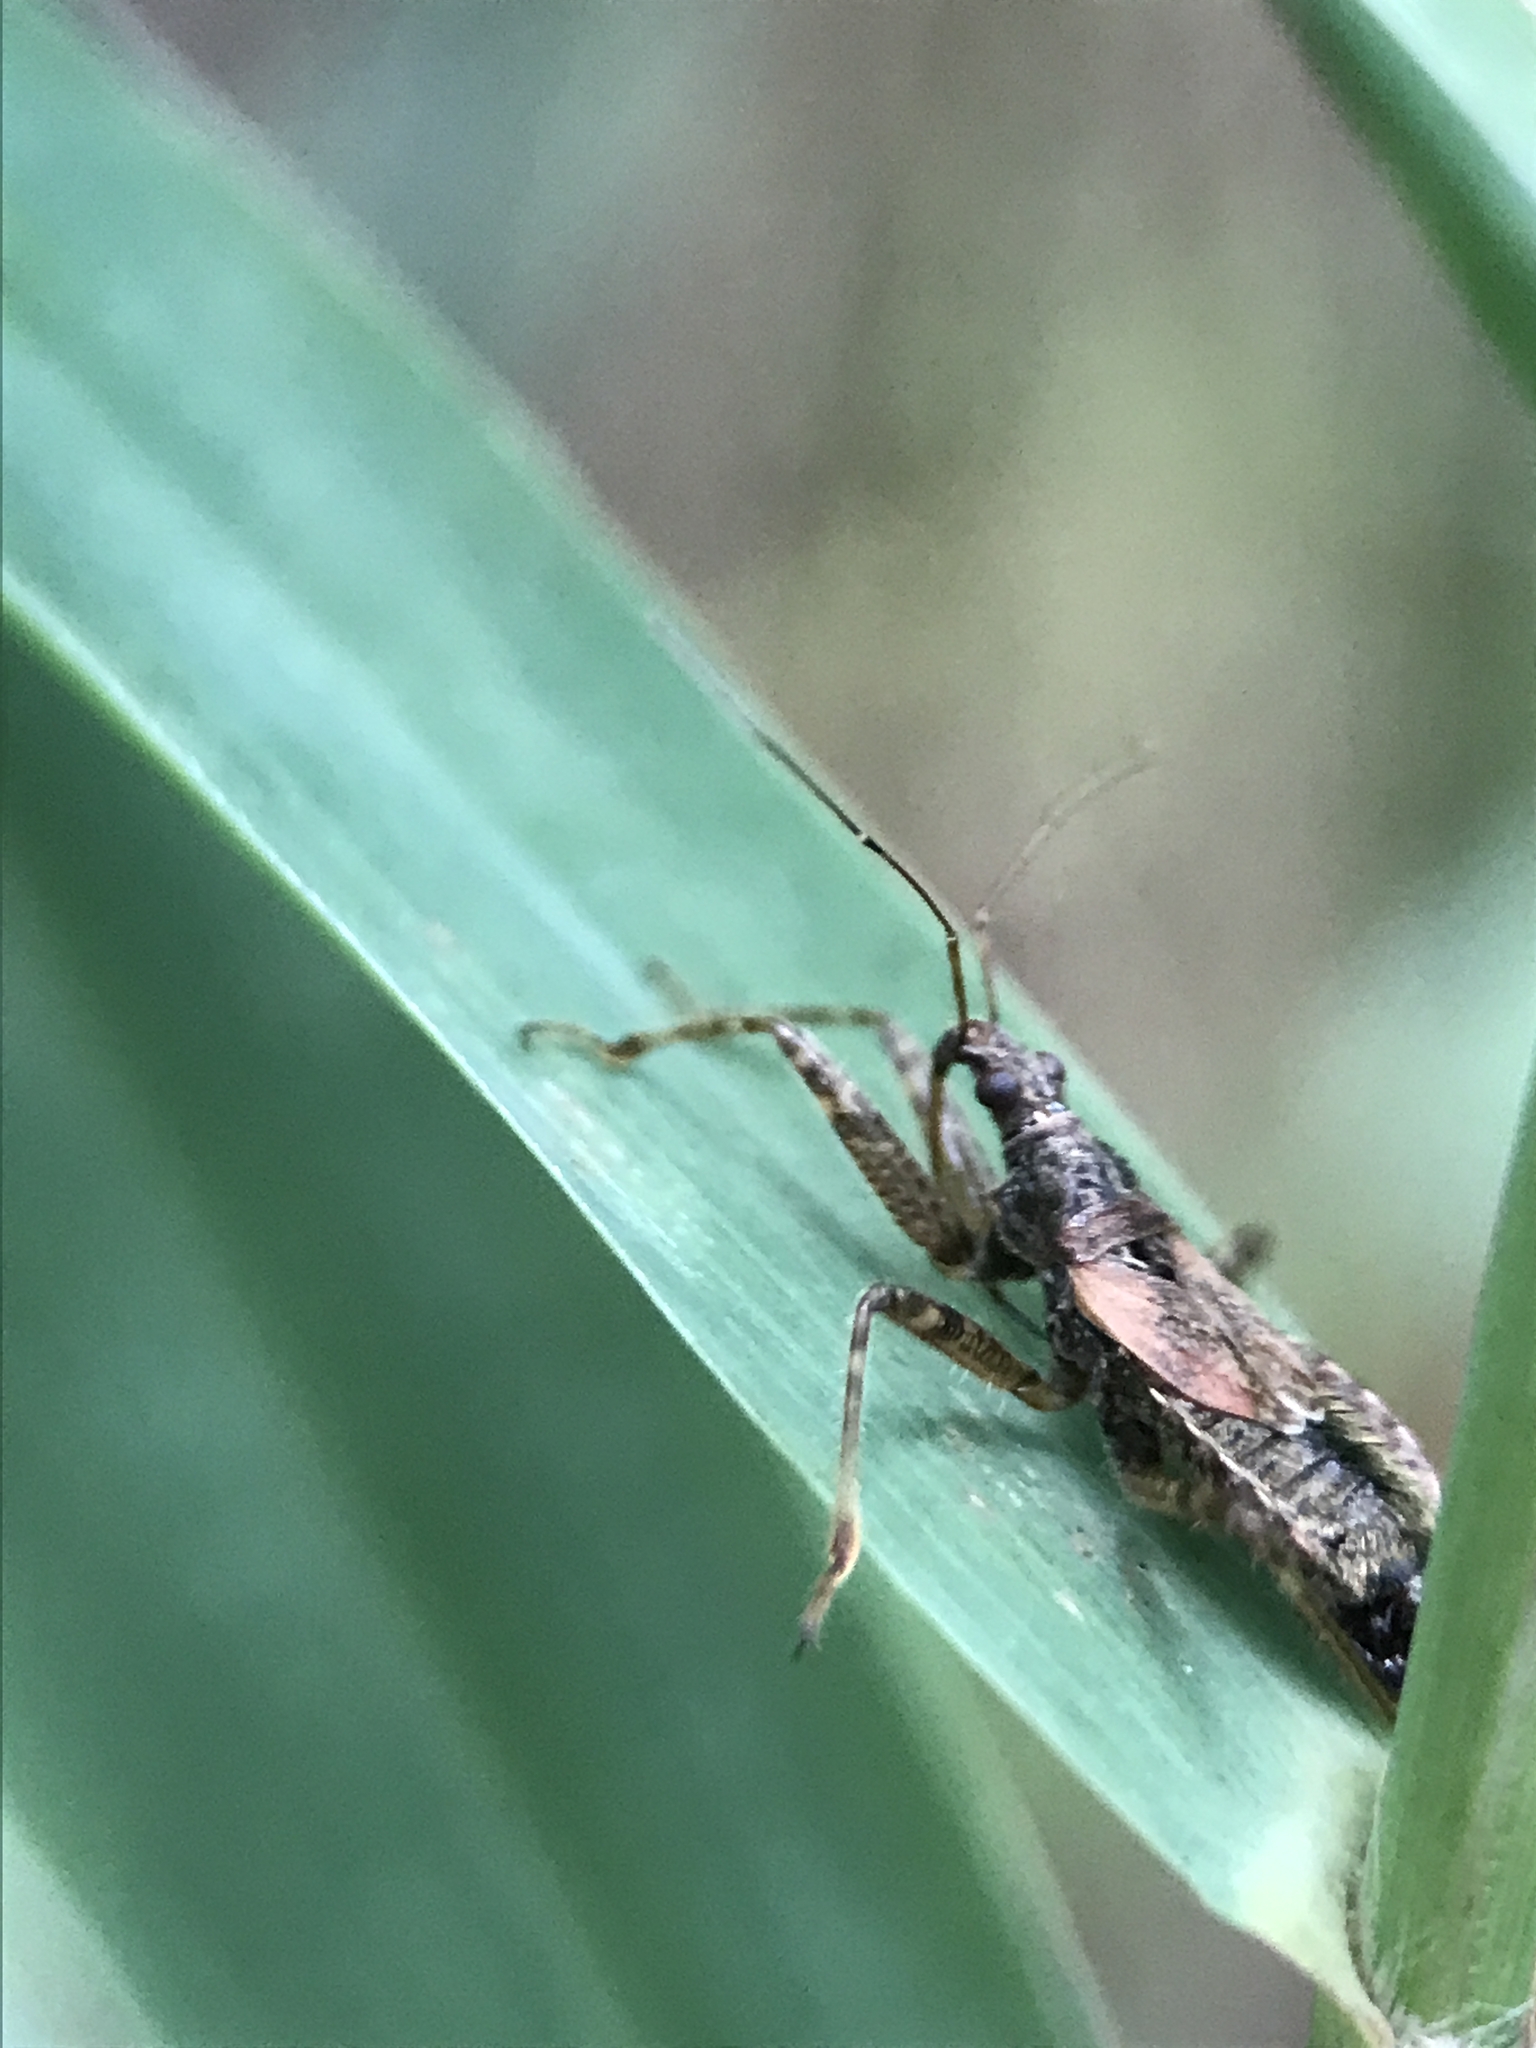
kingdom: Animalia
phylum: Arthropoda
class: Insecta
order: Hemiptera
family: Nabidae
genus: Himacerus
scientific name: Himacerus apterus
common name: Tree damsel bug
